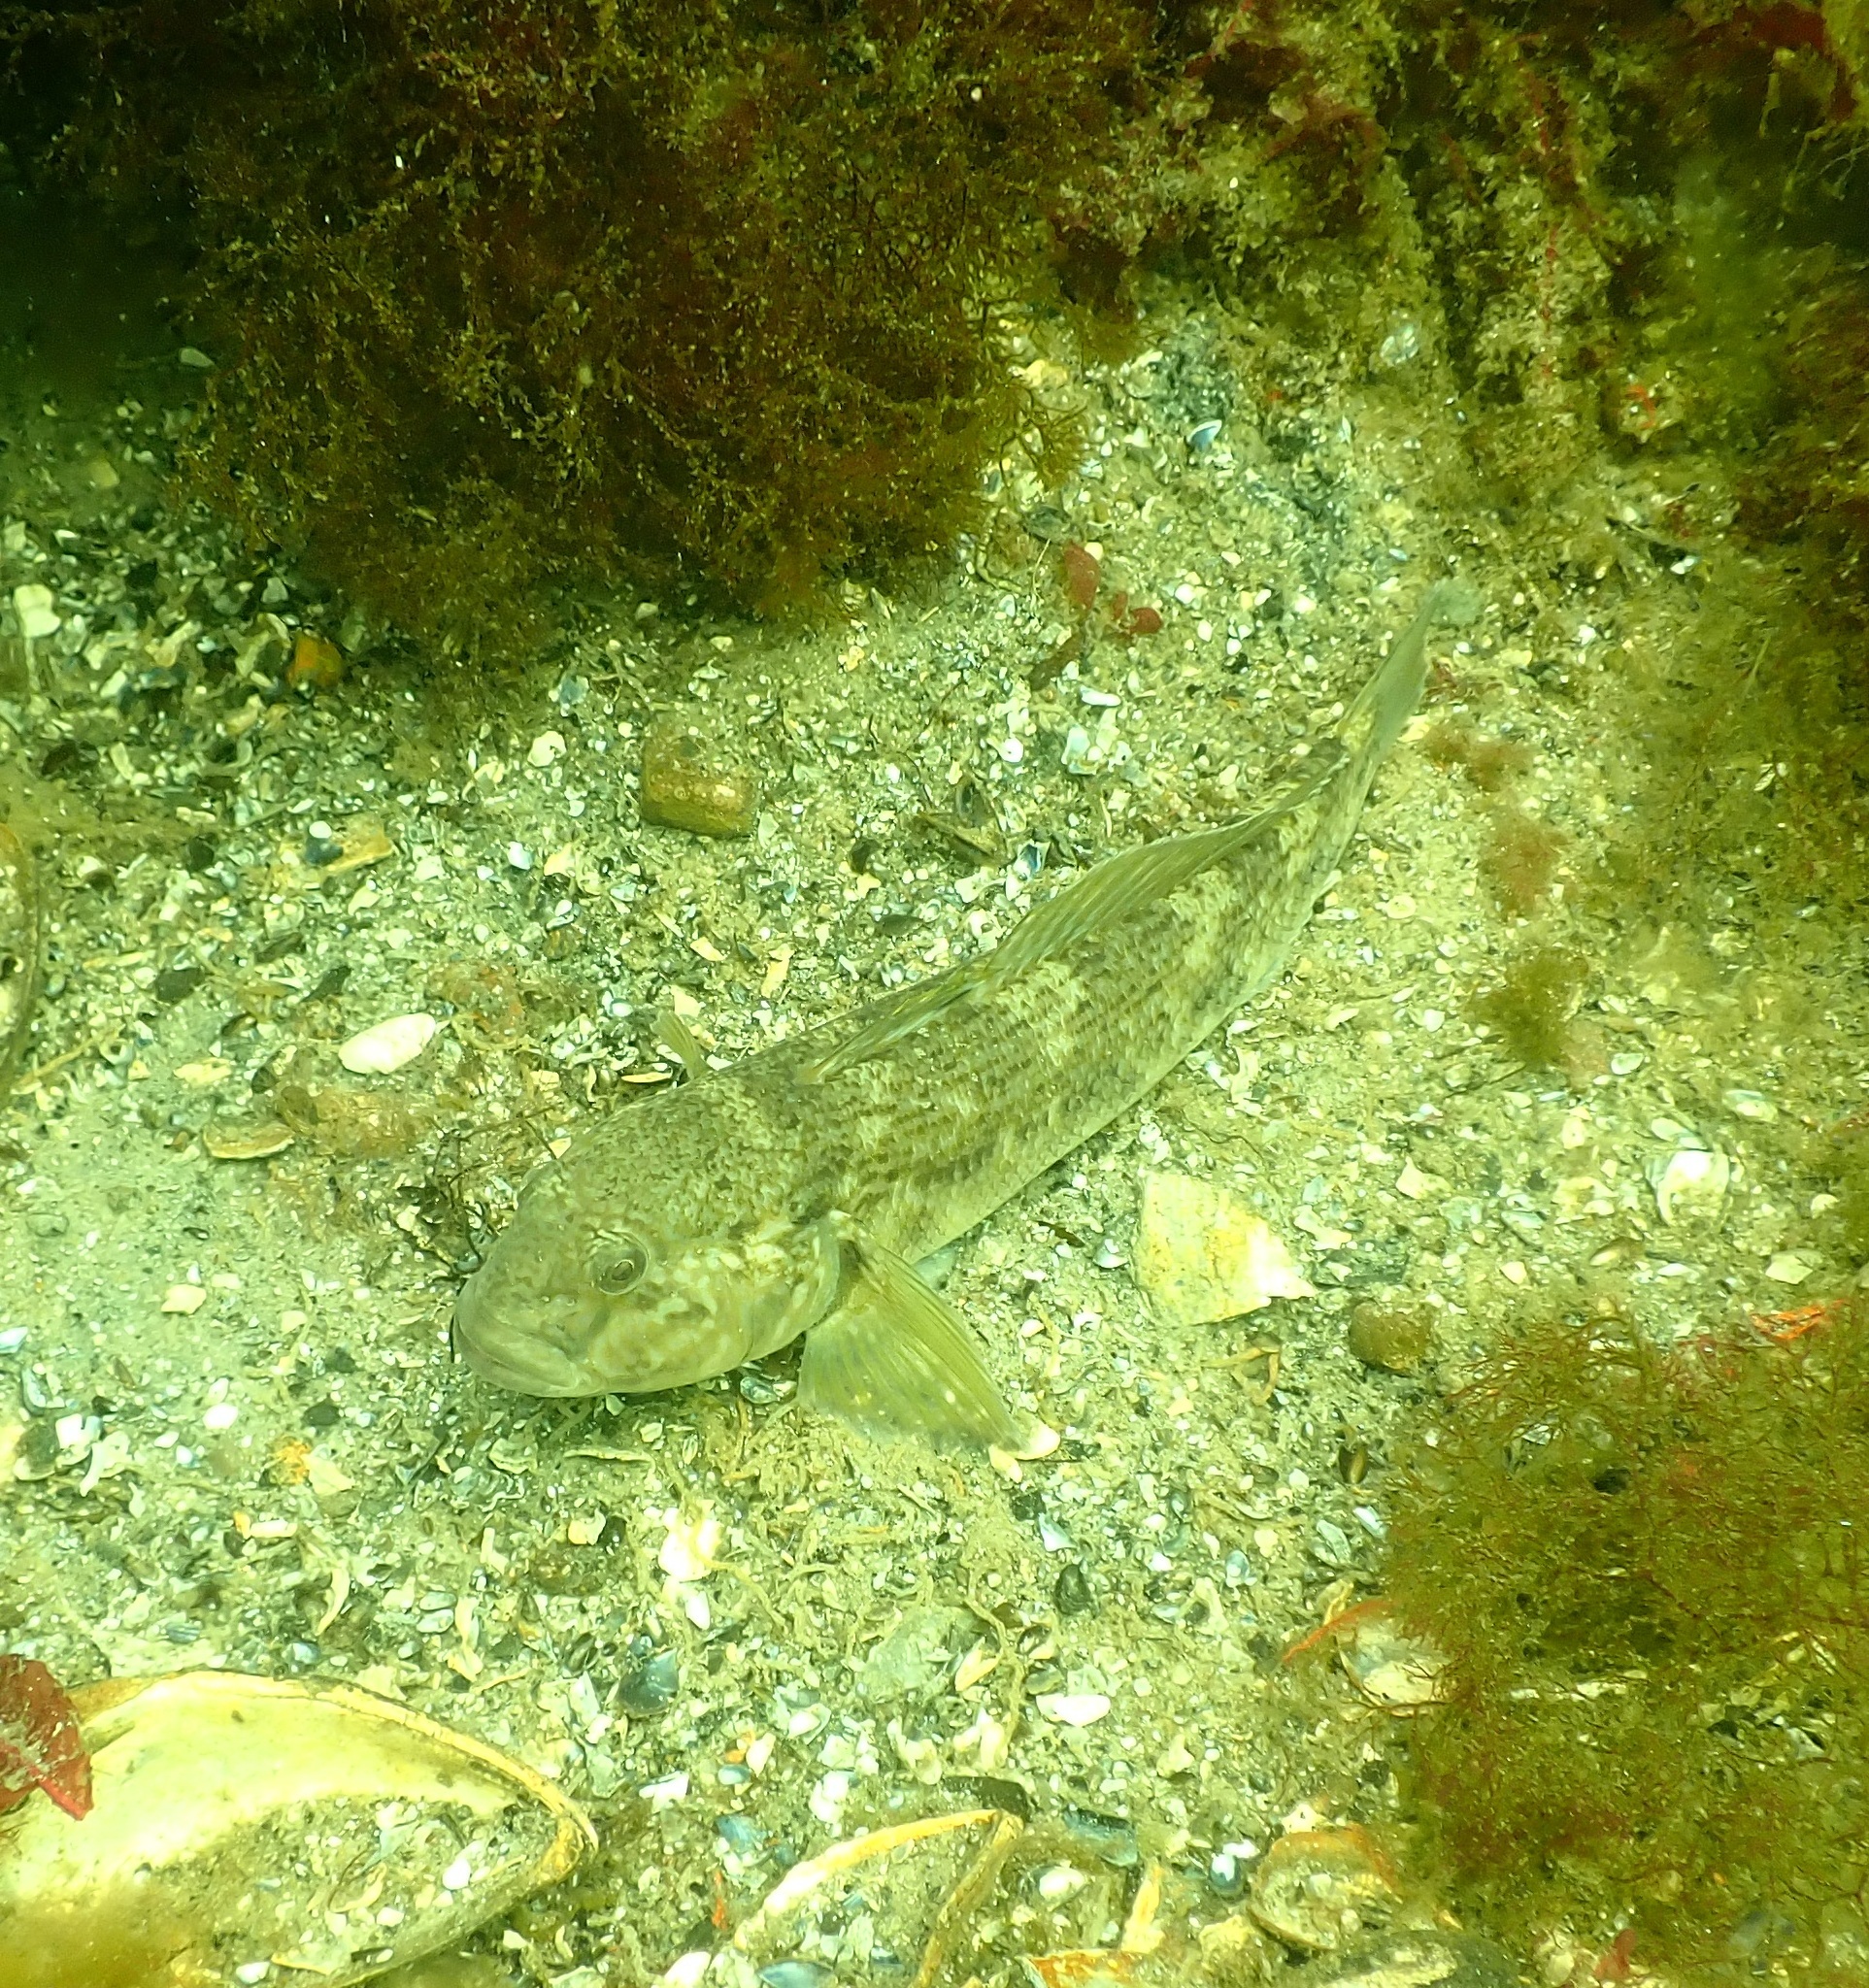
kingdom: Animalia
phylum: Chordata
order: Perciformes
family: Gobiidae
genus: Neogobius
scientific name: Neogobius melanostomus
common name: Round goby
